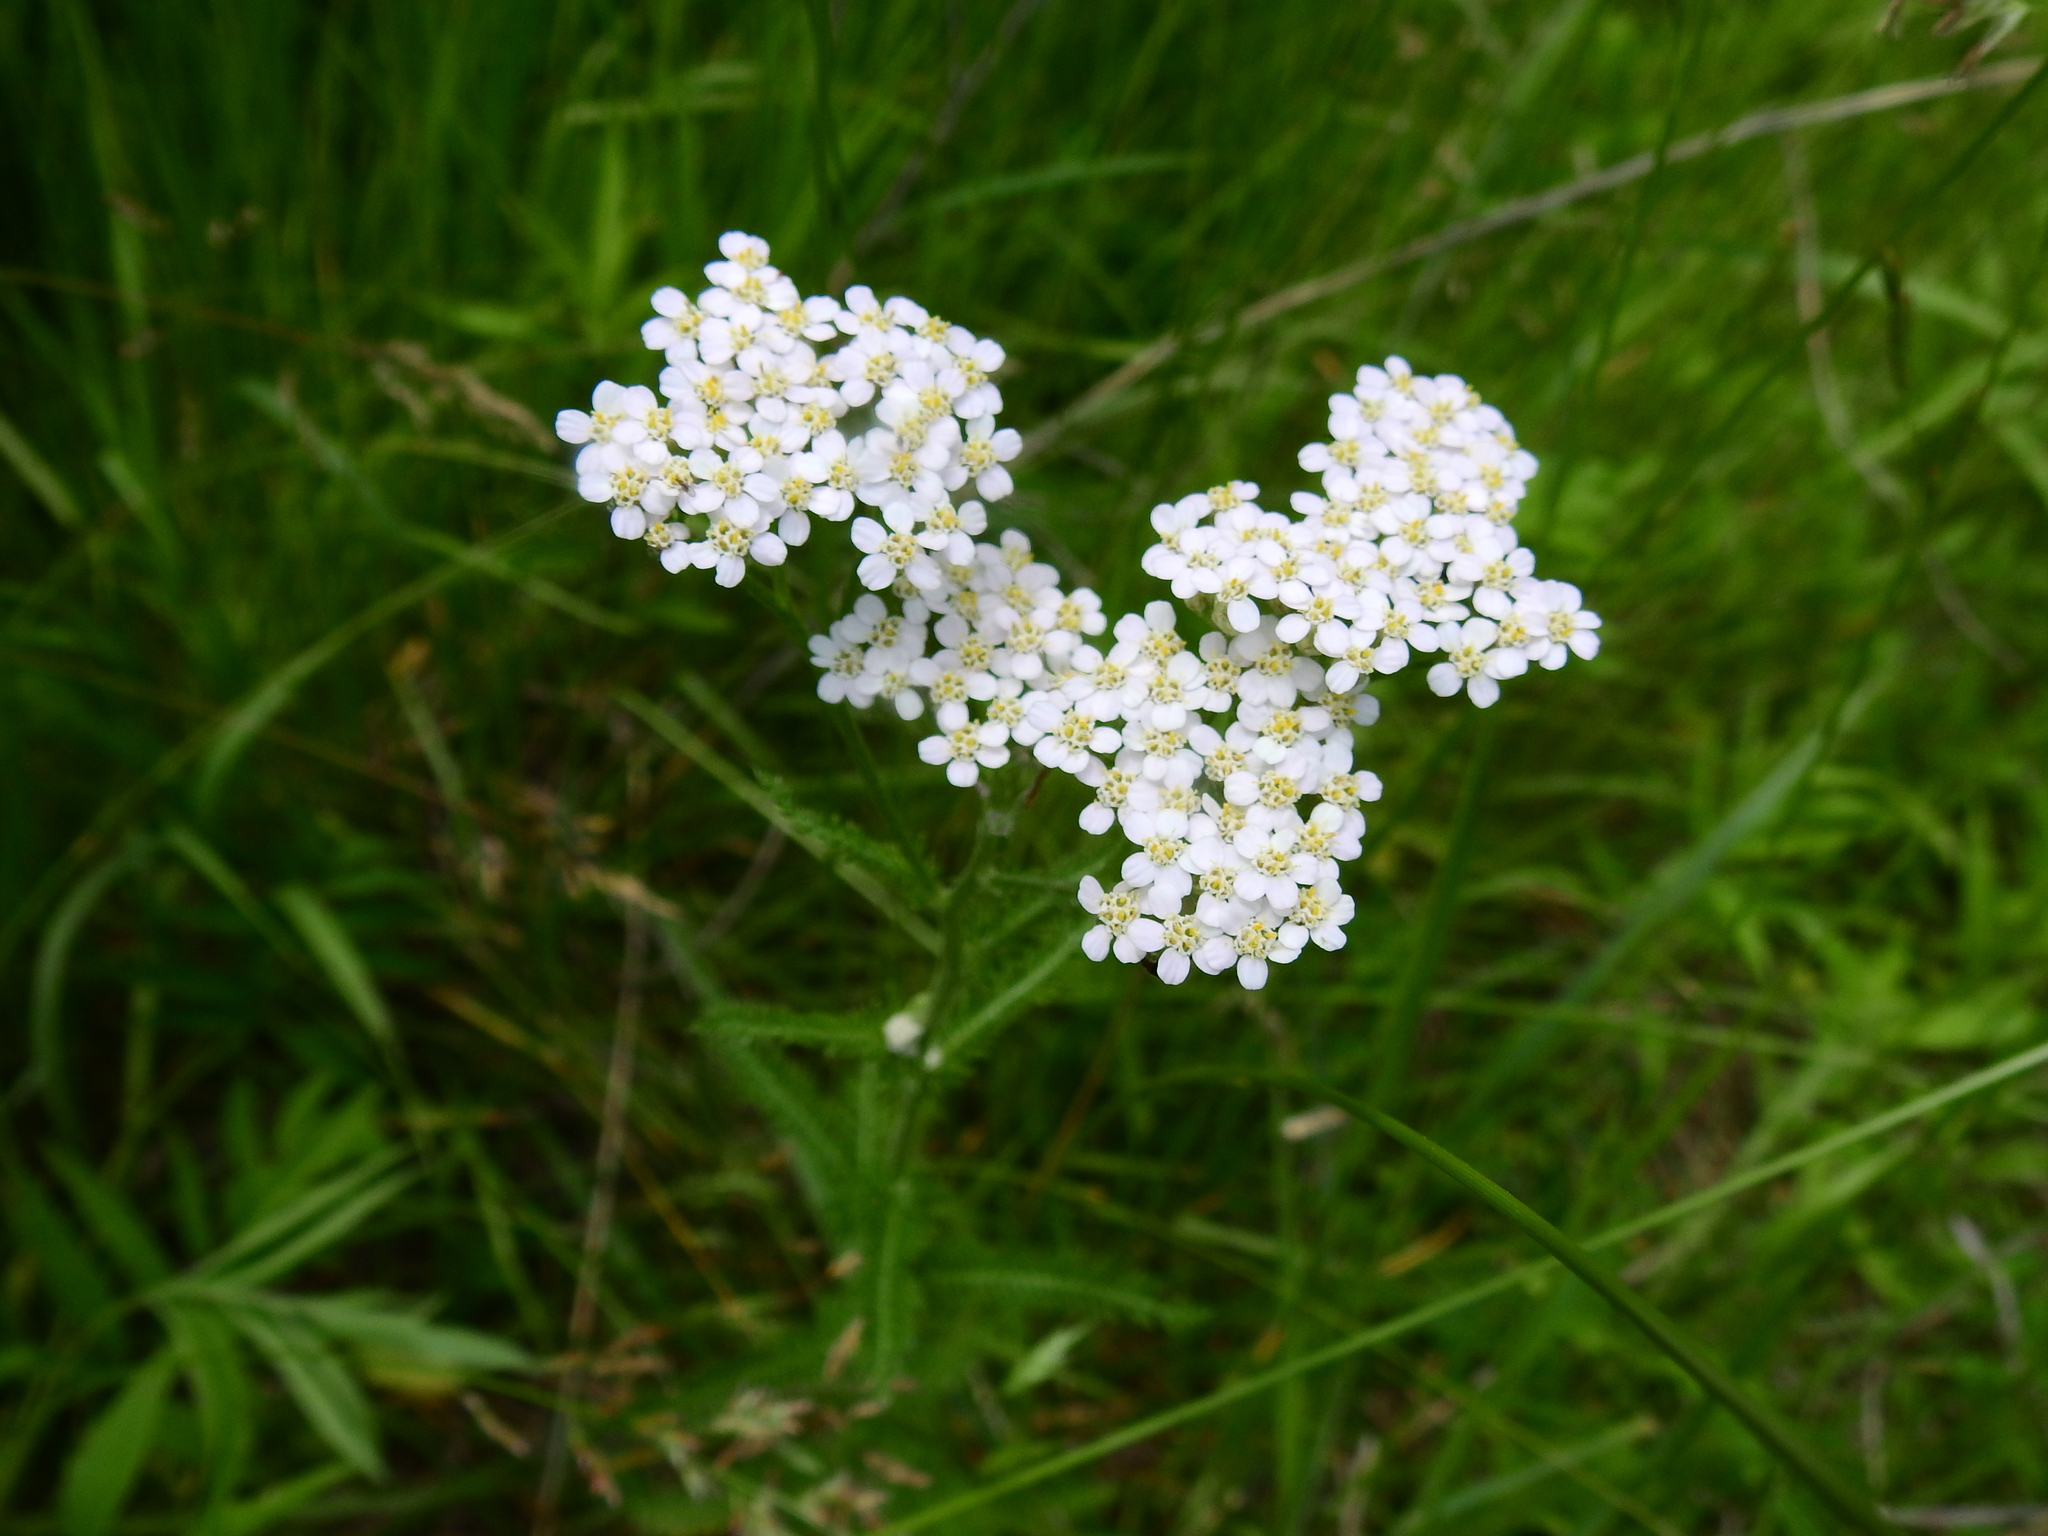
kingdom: Plantae
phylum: Tracheophyta
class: Magnoliopsida
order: Asterales
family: Asteraceae
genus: Achillea
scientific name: Achillea millefolium
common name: Yarrow
